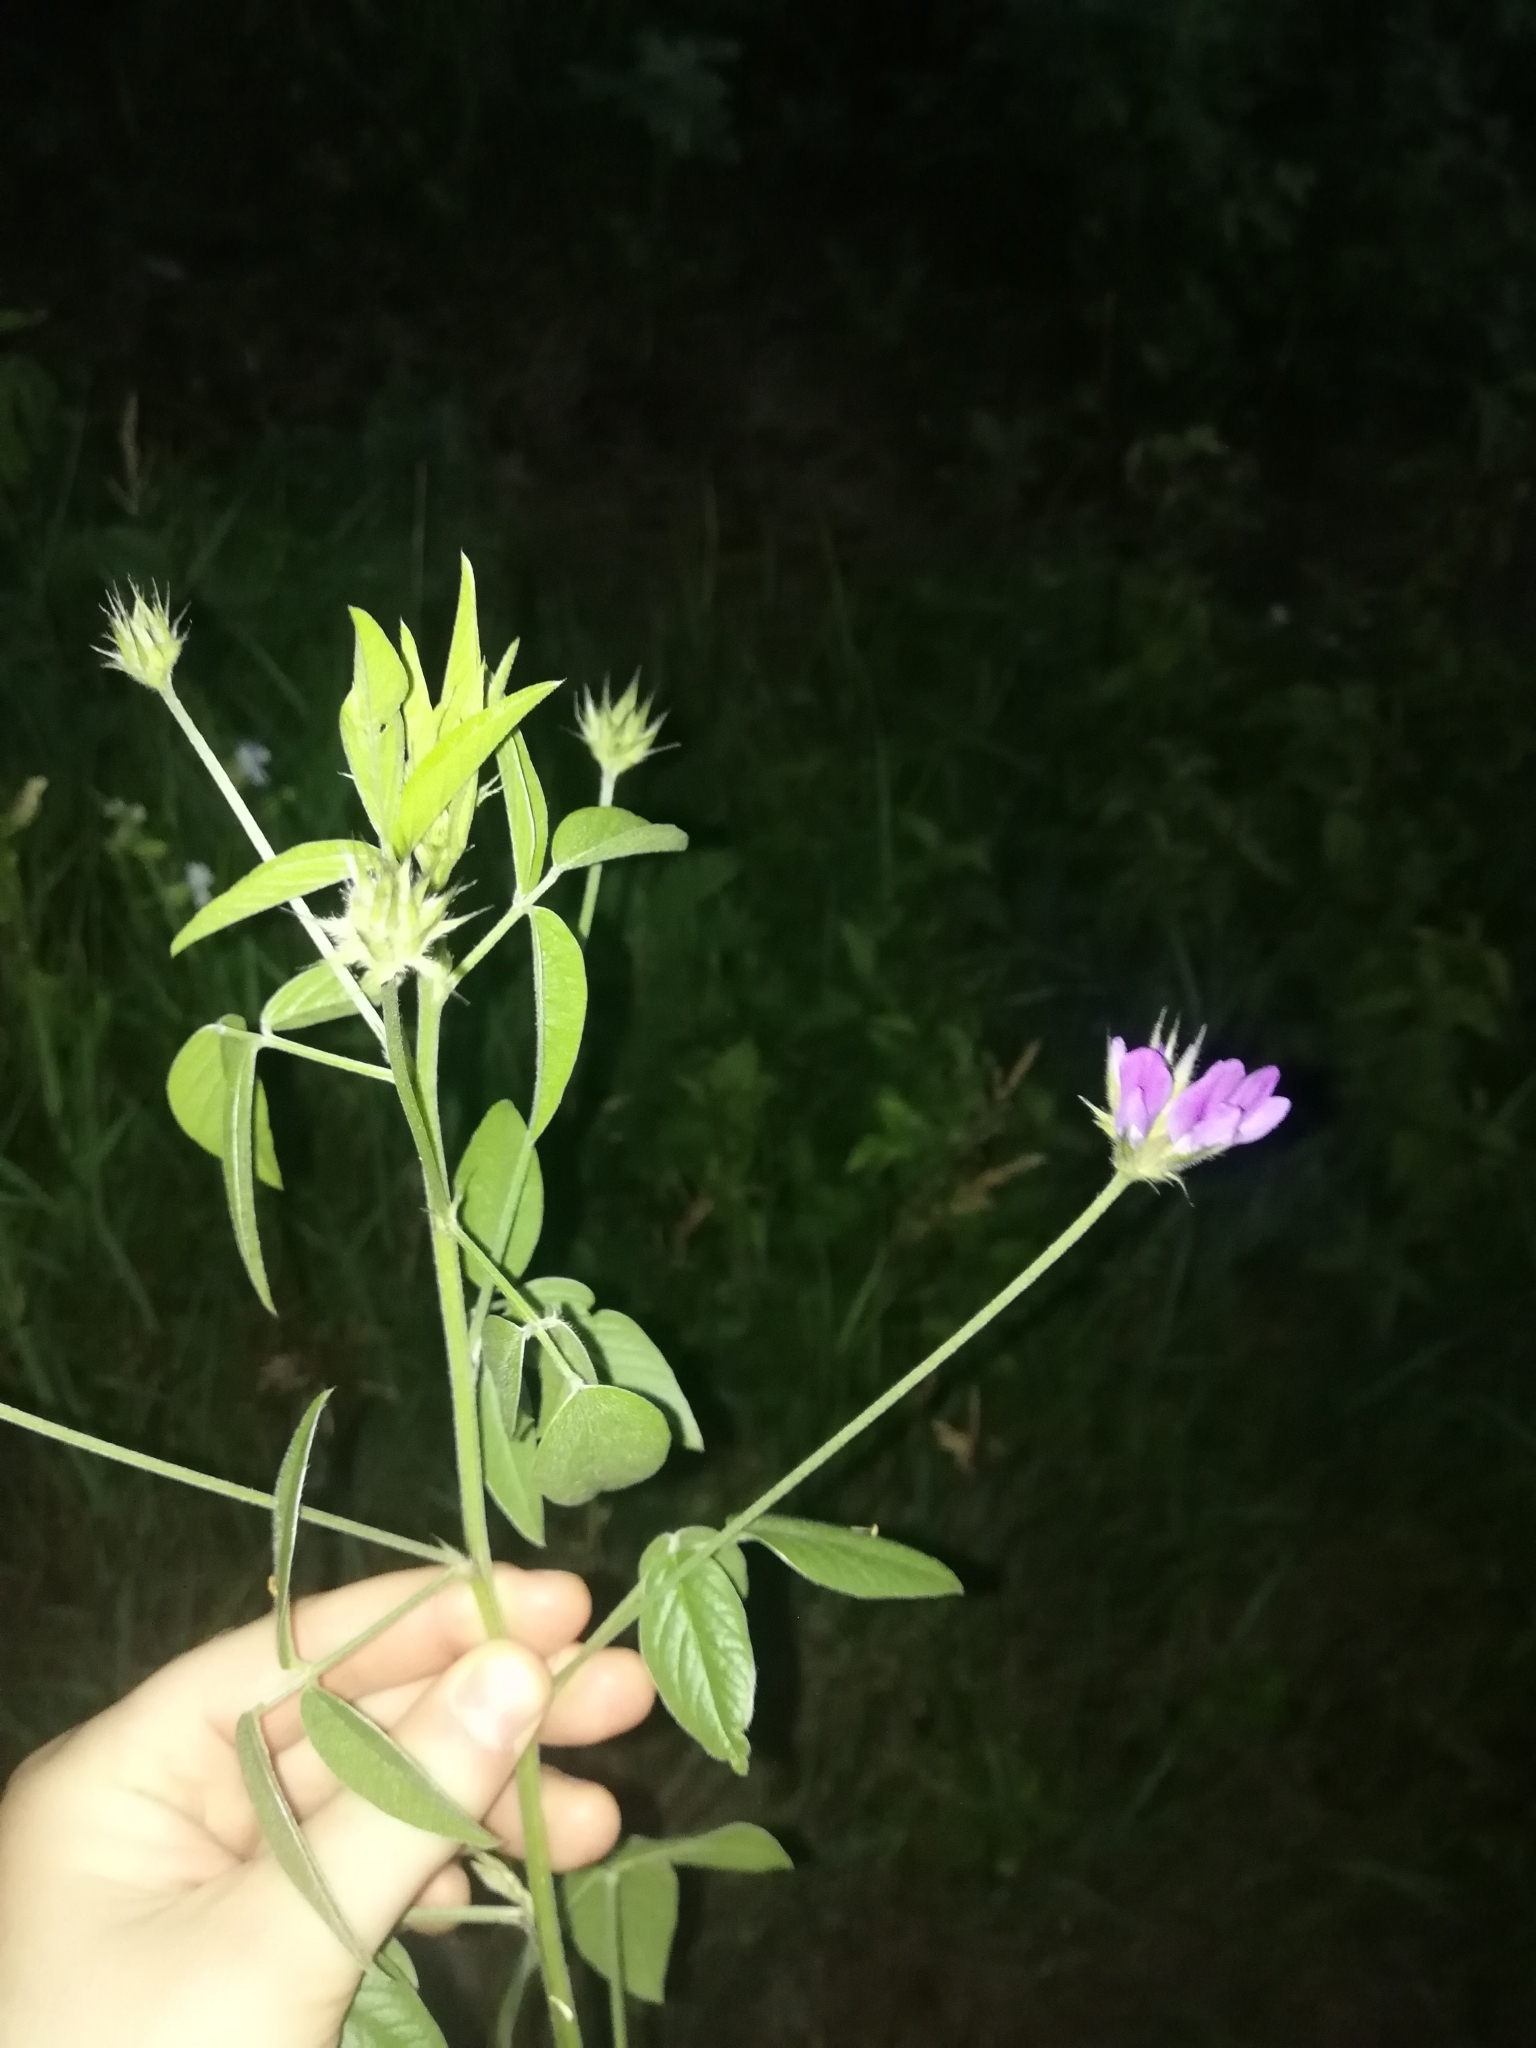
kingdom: Plantae
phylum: Tracheophyta
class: Magnoliopsida
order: Fabales
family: Fabaceae
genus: Bituminaria
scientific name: Bituminaria bituminosa
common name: Arabian pea
